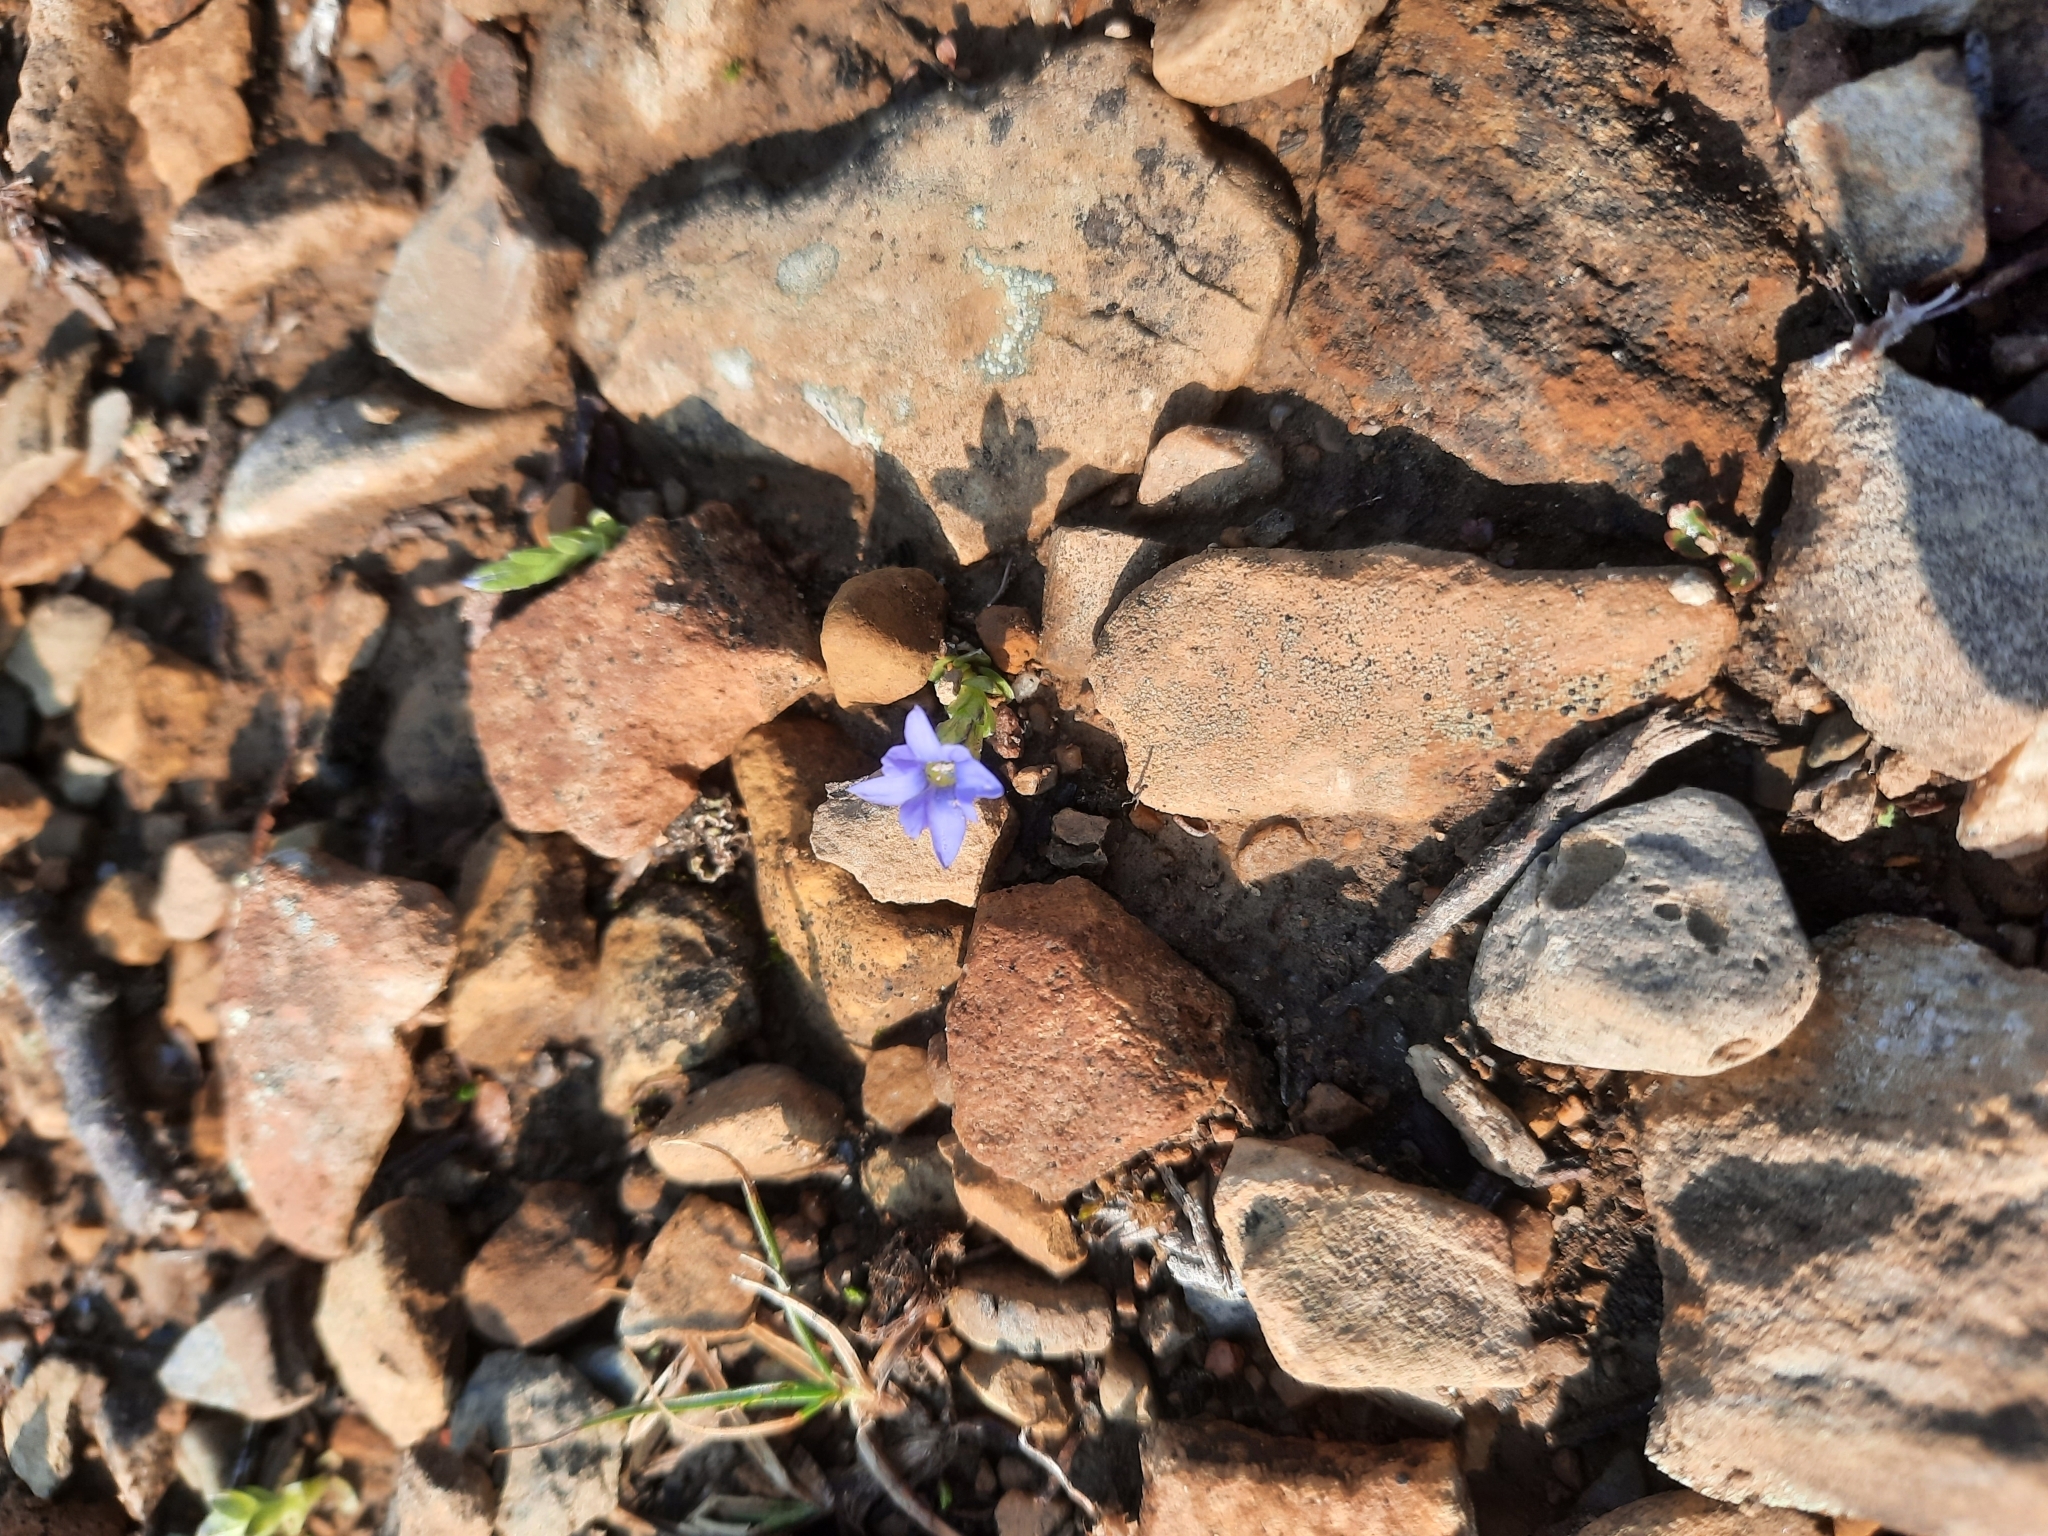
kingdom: Plantae
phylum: Tracheophyta
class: Magnoliopsida
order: Gentianales
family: Gentianaceae
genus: Gentiana
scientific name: Gentiana prostrata
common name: Moss gentian
